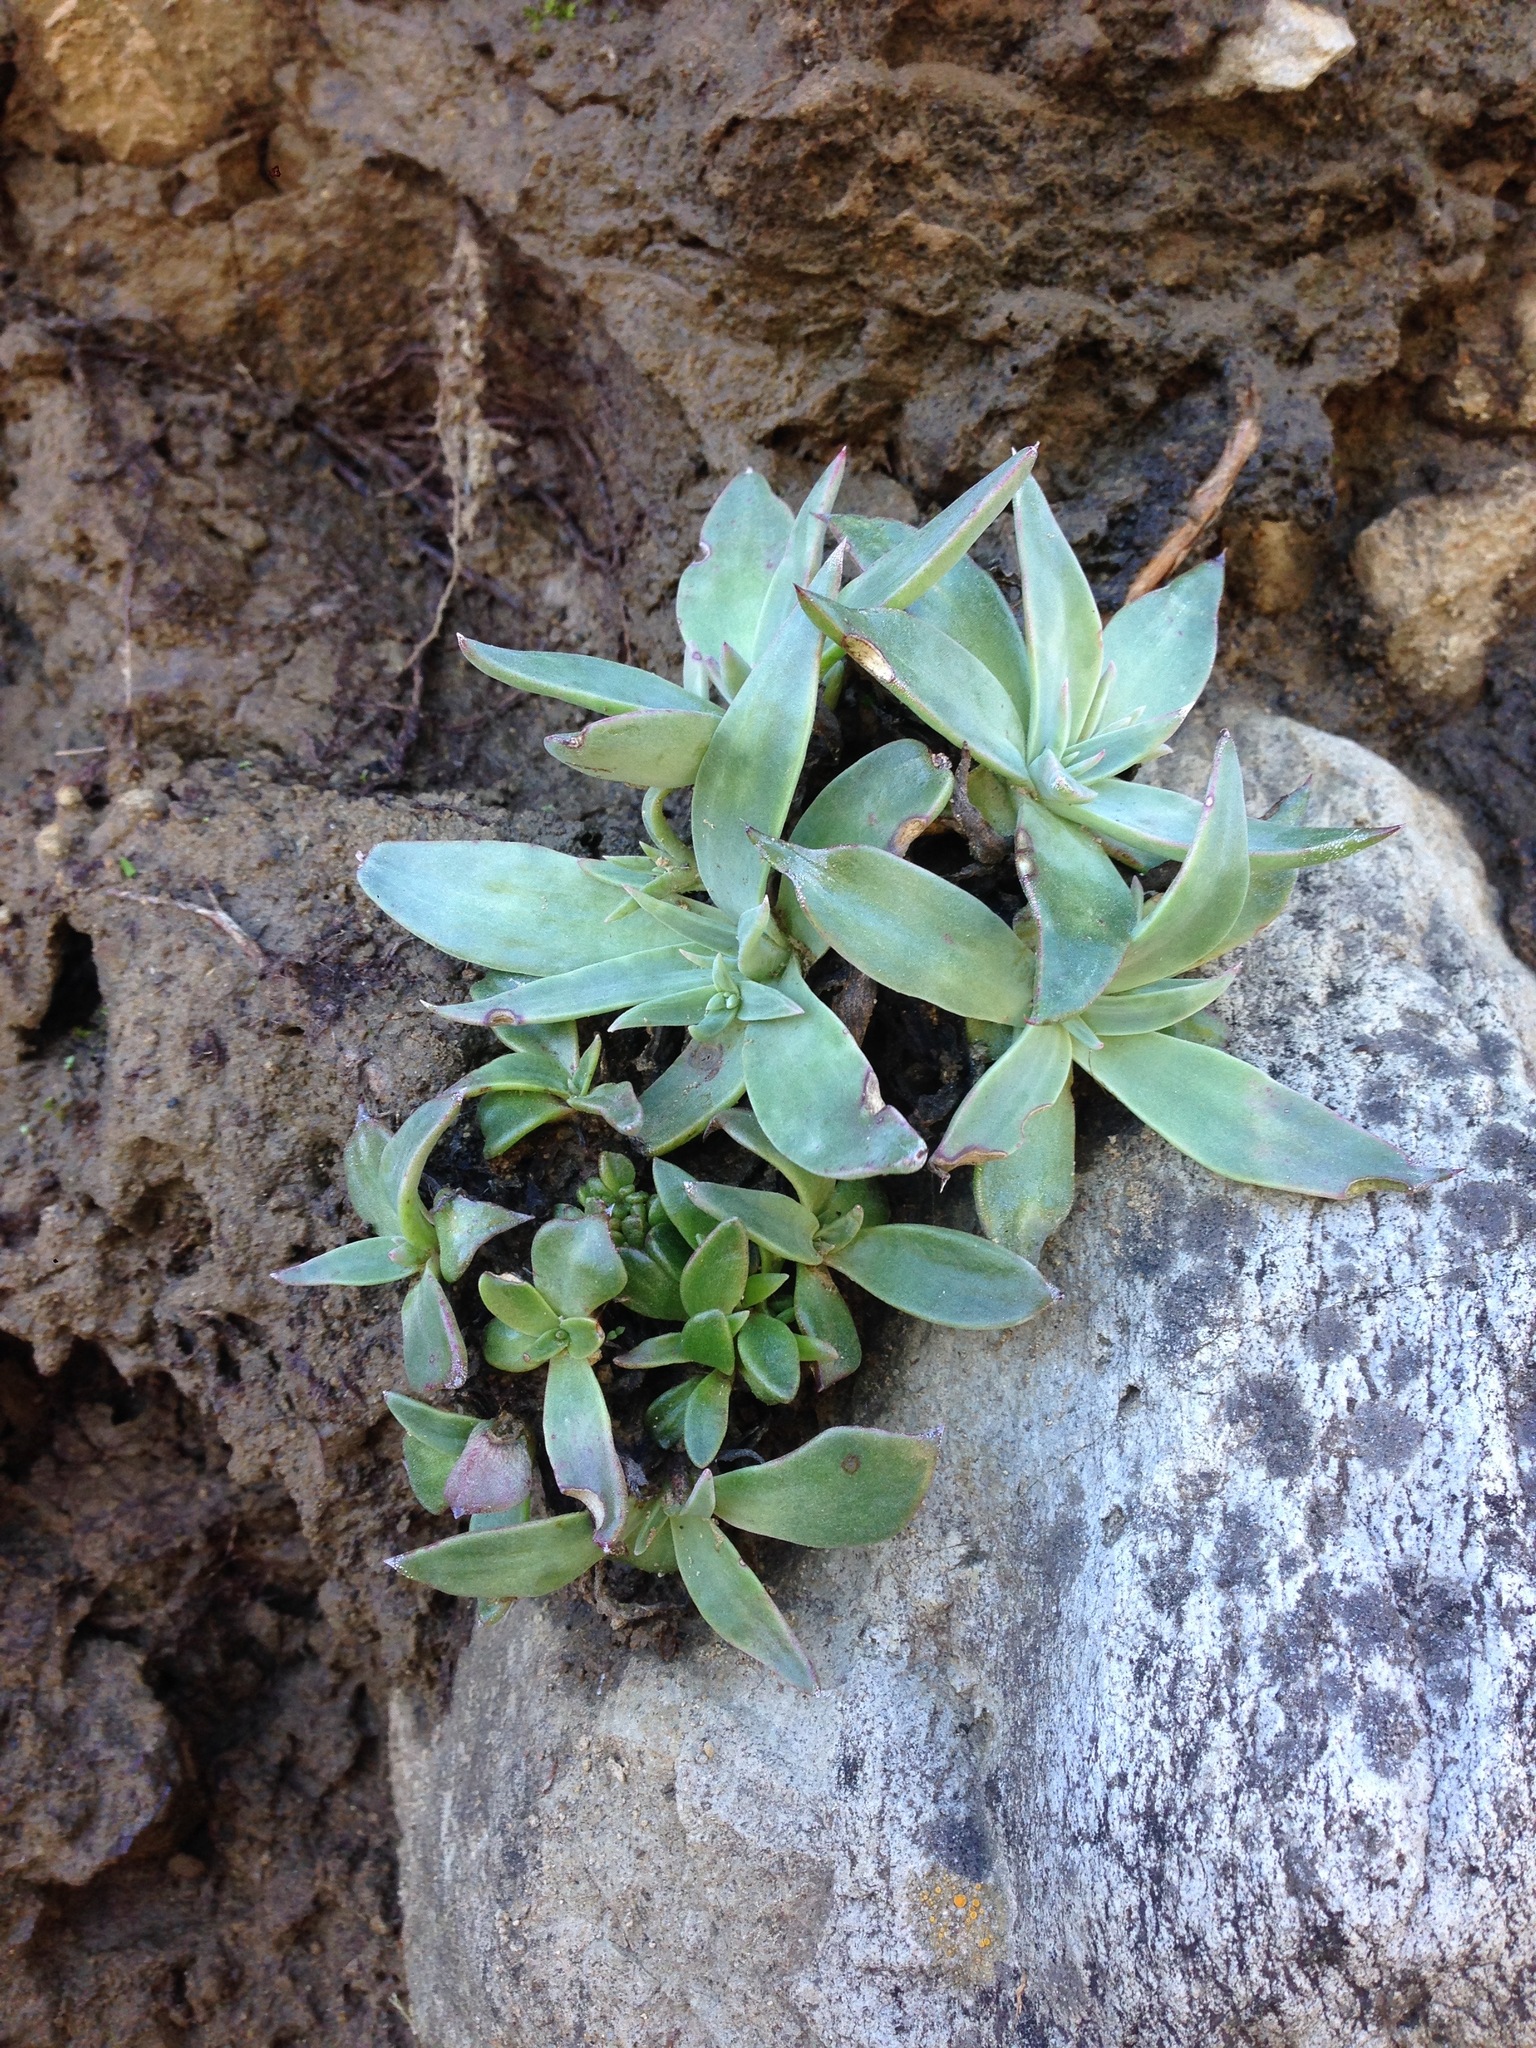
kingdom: Plantae
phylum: Tracheophyta
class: Magnoliopsida
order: Saxifragales
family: Crassulaceae
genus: Dudleya
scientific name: Dudleya cymosa
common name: Canyon dudleya
